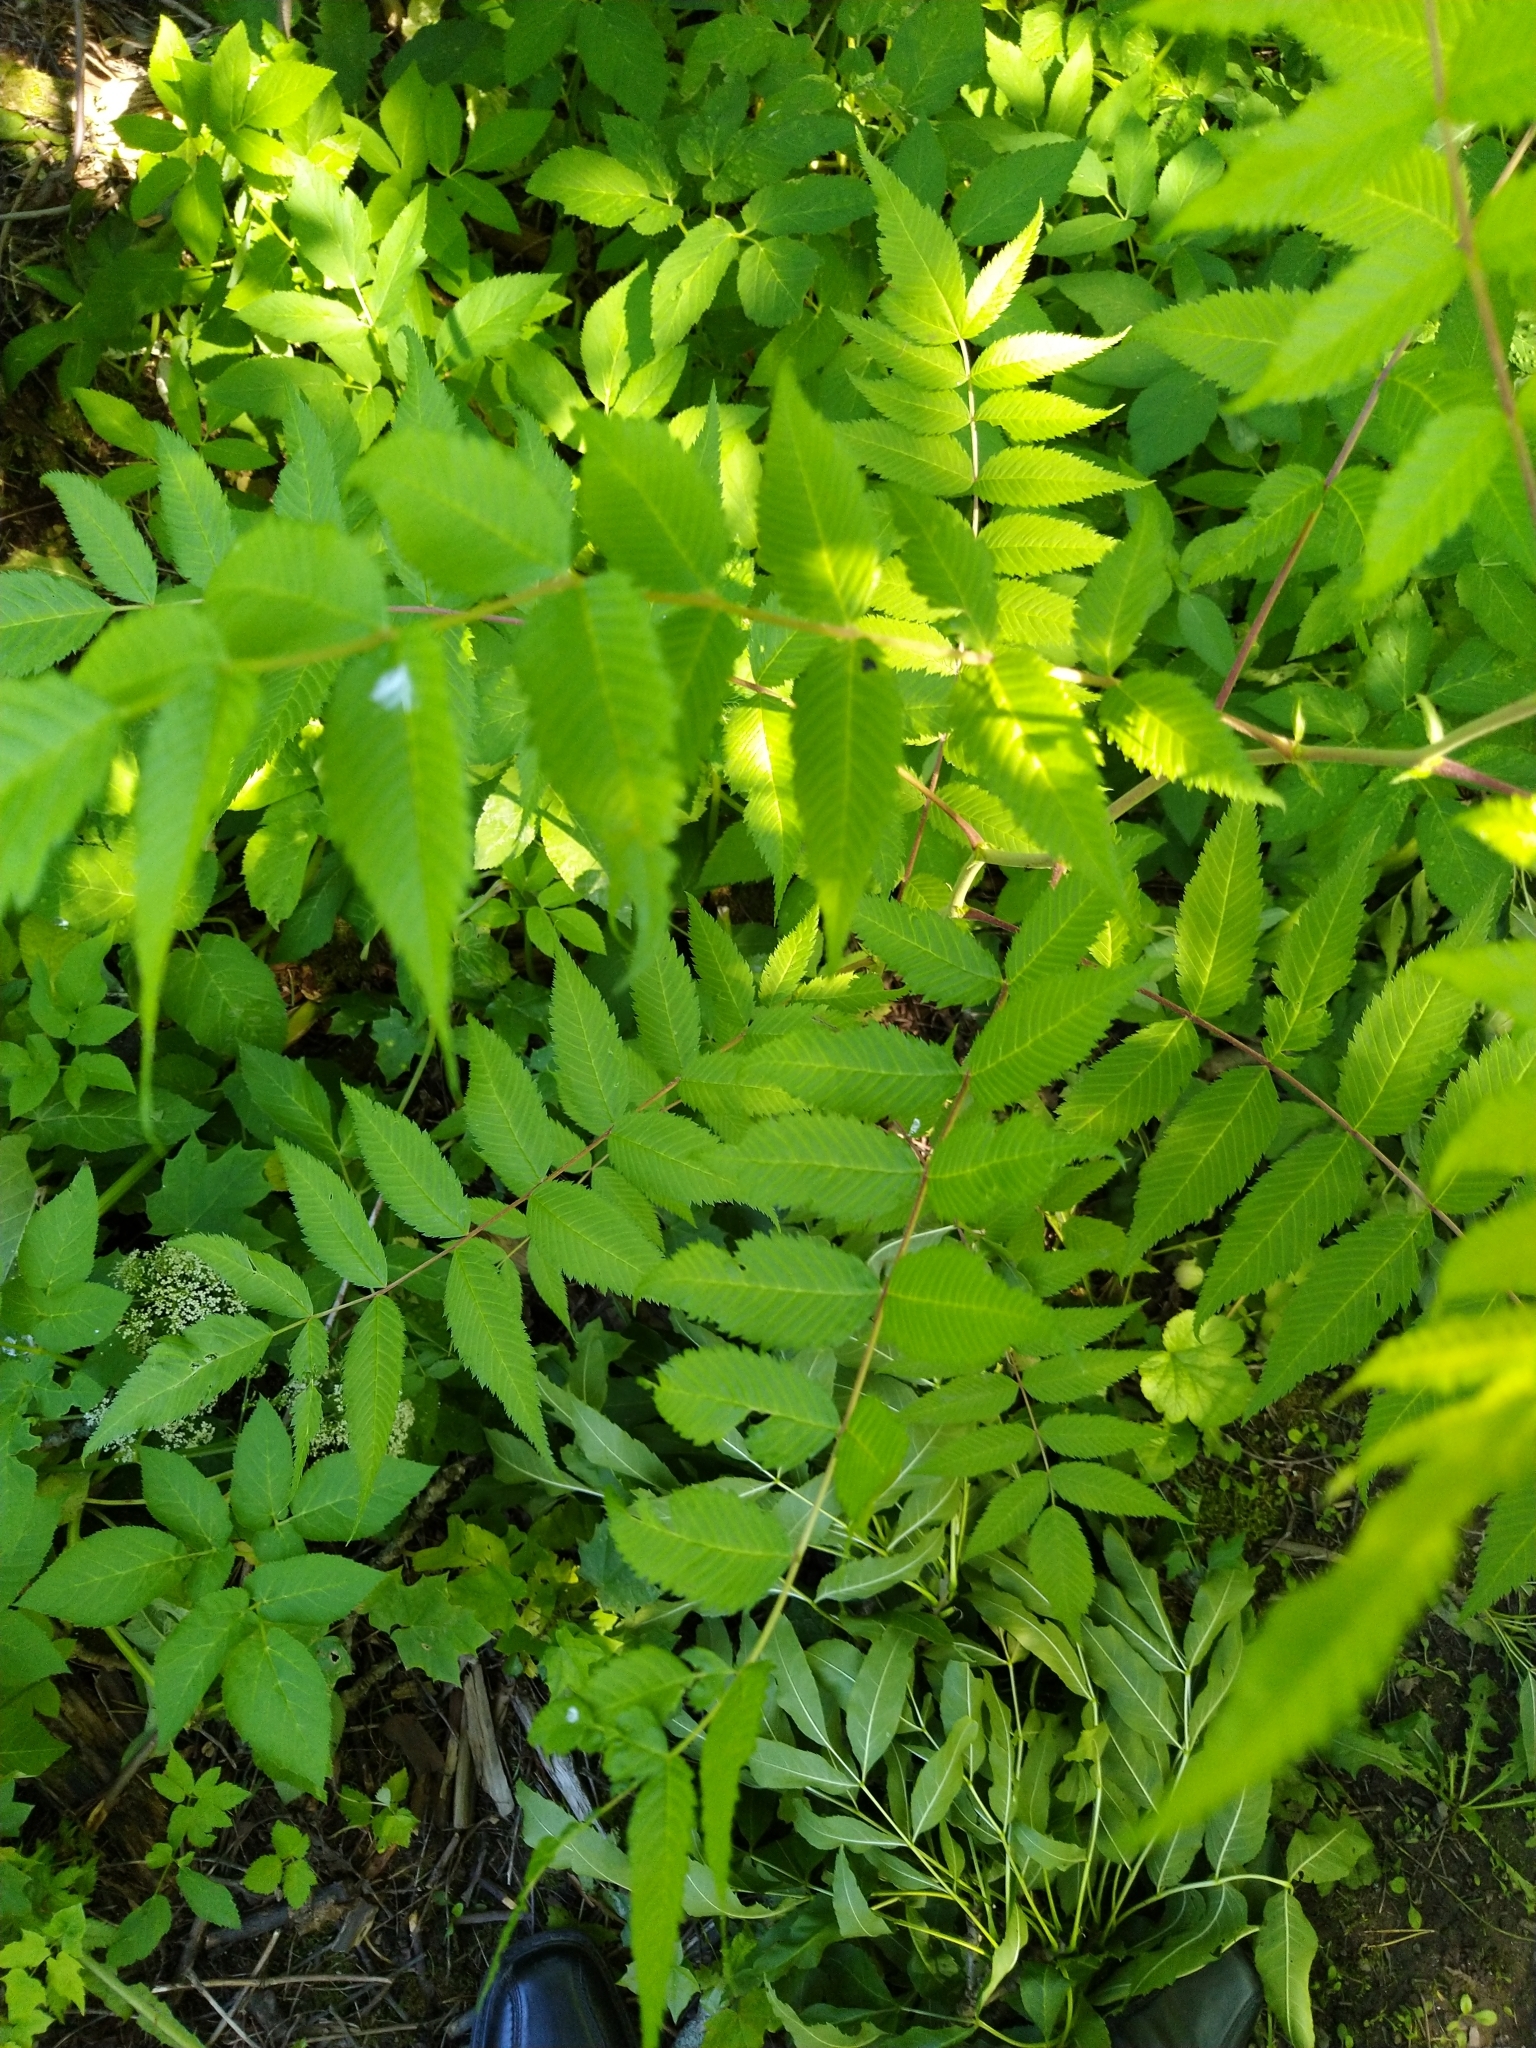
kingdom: Plantae
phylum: Tracheophyta
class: Magnoliopsida
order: Rosales
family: Rosaceae
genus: Sorbaria
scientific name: Sorbaria sorbifolia
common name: False spiraea
